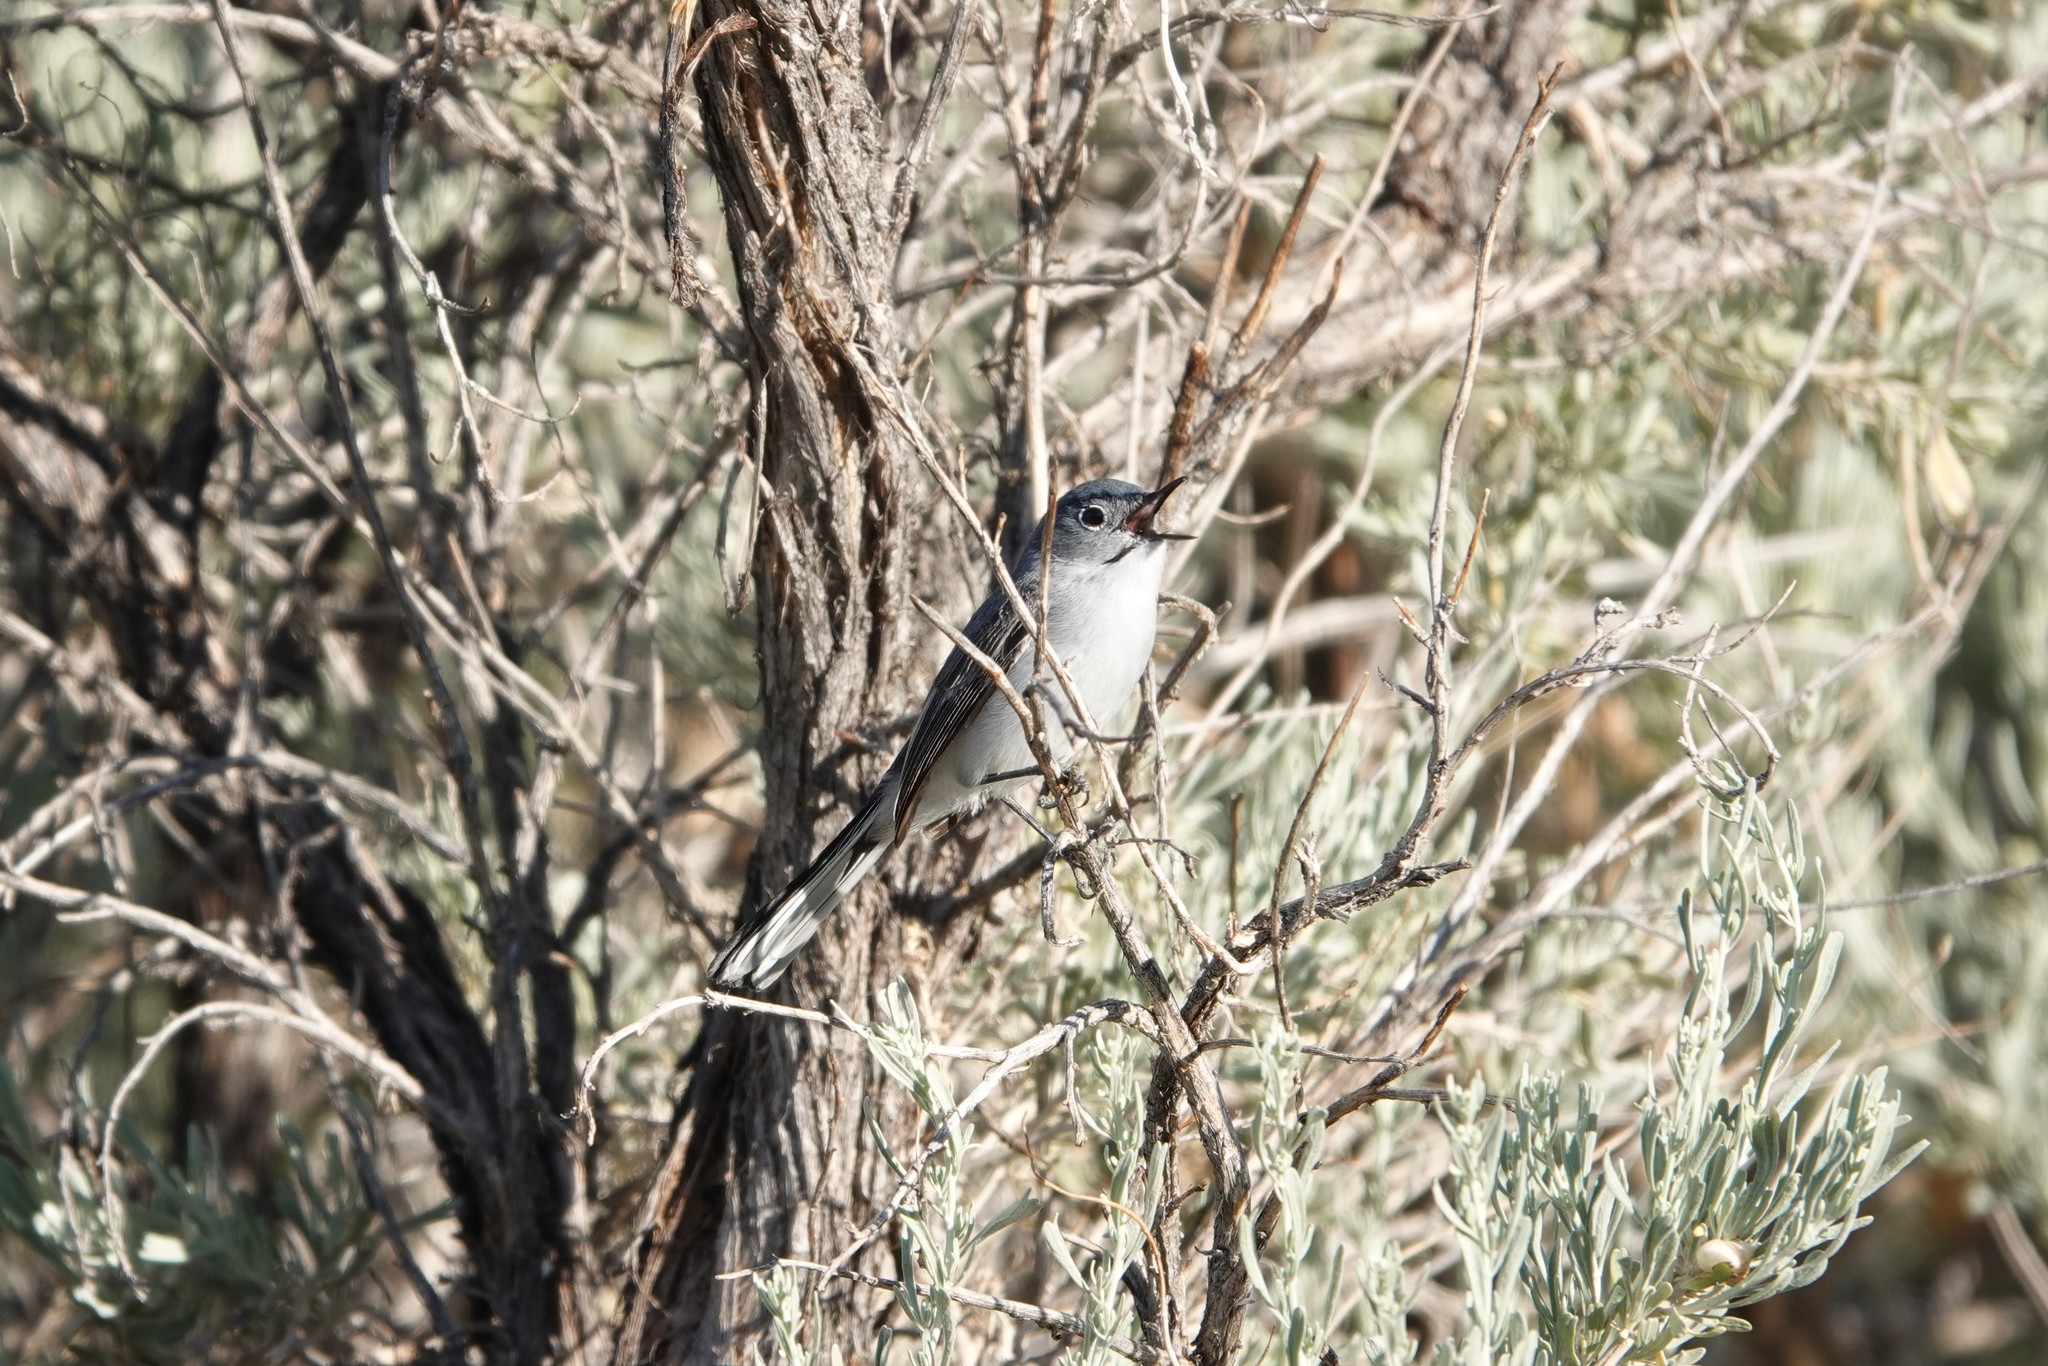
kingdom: Animalia
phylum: Chordata
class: Aves
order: Passeriformes
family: Polioptilidae
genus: Polioptila
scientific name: Polioptila caerulea
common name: Blue-gray gnatcatcher
